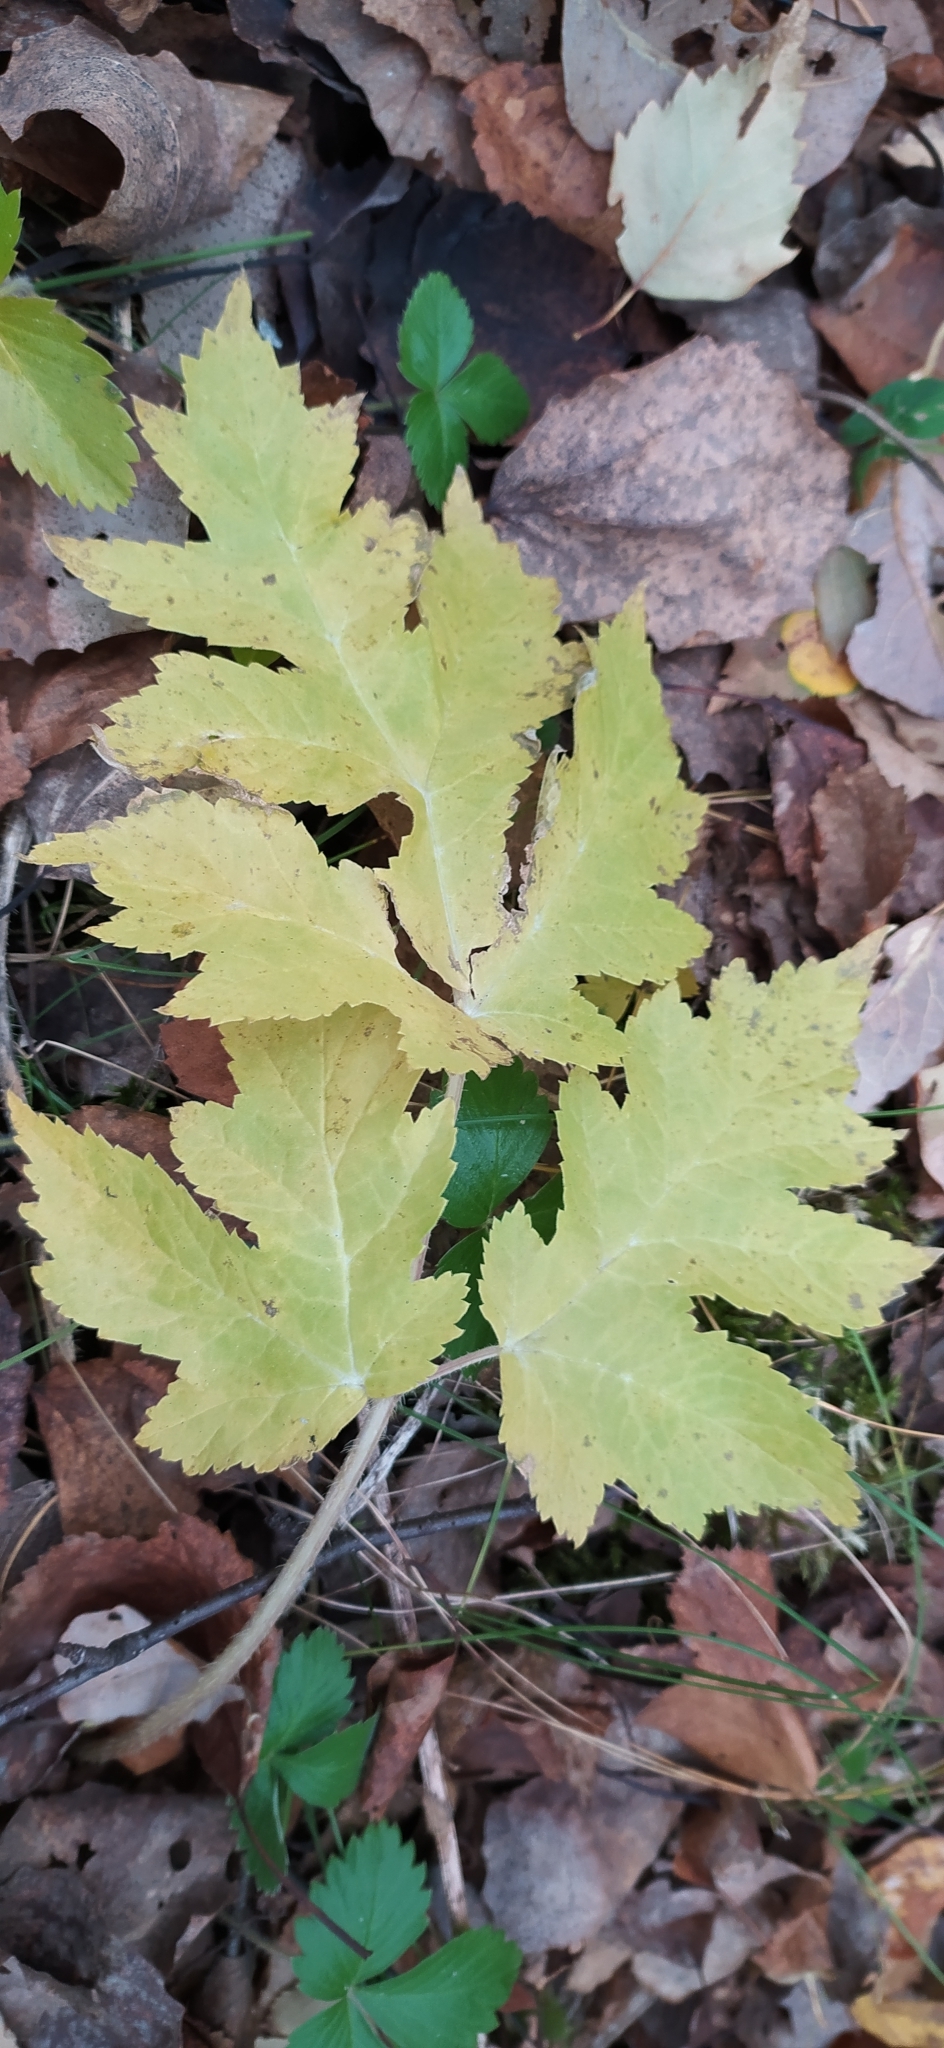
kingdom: Plantae
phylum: Tracheophyta
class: Magnoliopsida
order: Apiales
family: Apiaceae
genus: Heracleum
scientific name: Heracleum sphondylium
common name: Hogweed
